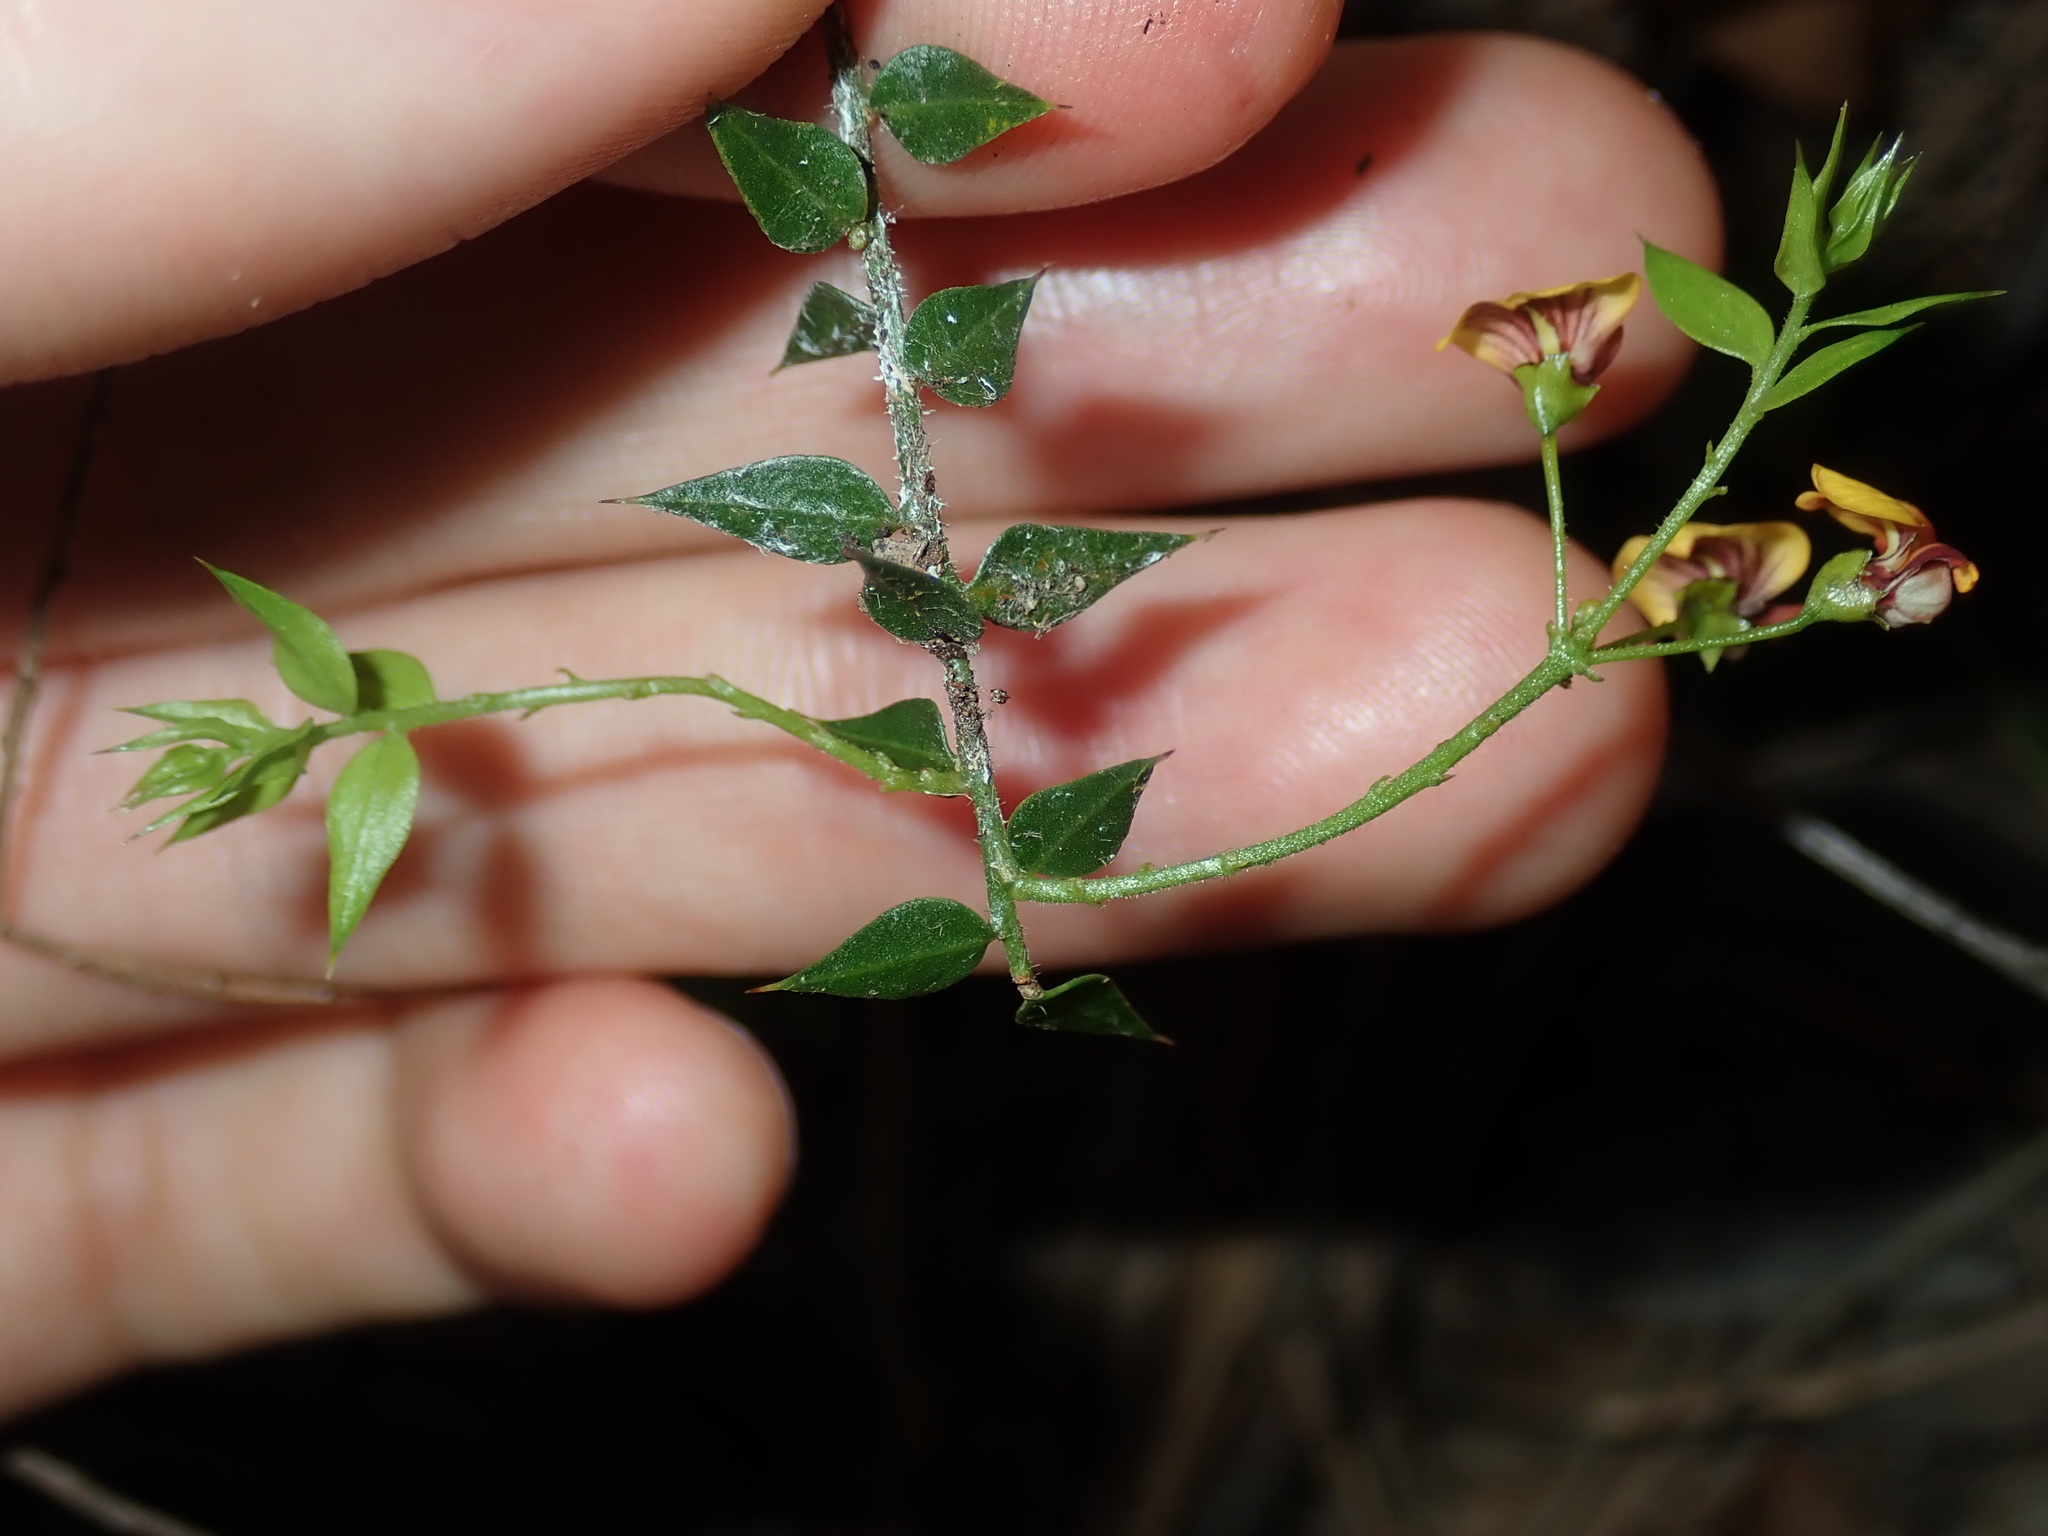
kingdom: Plantae
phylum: Tracheophyta
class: Magnoliopsida
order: Fabales
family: Fabaceae
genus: Daviesia
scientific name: Daviesia umbellulata
